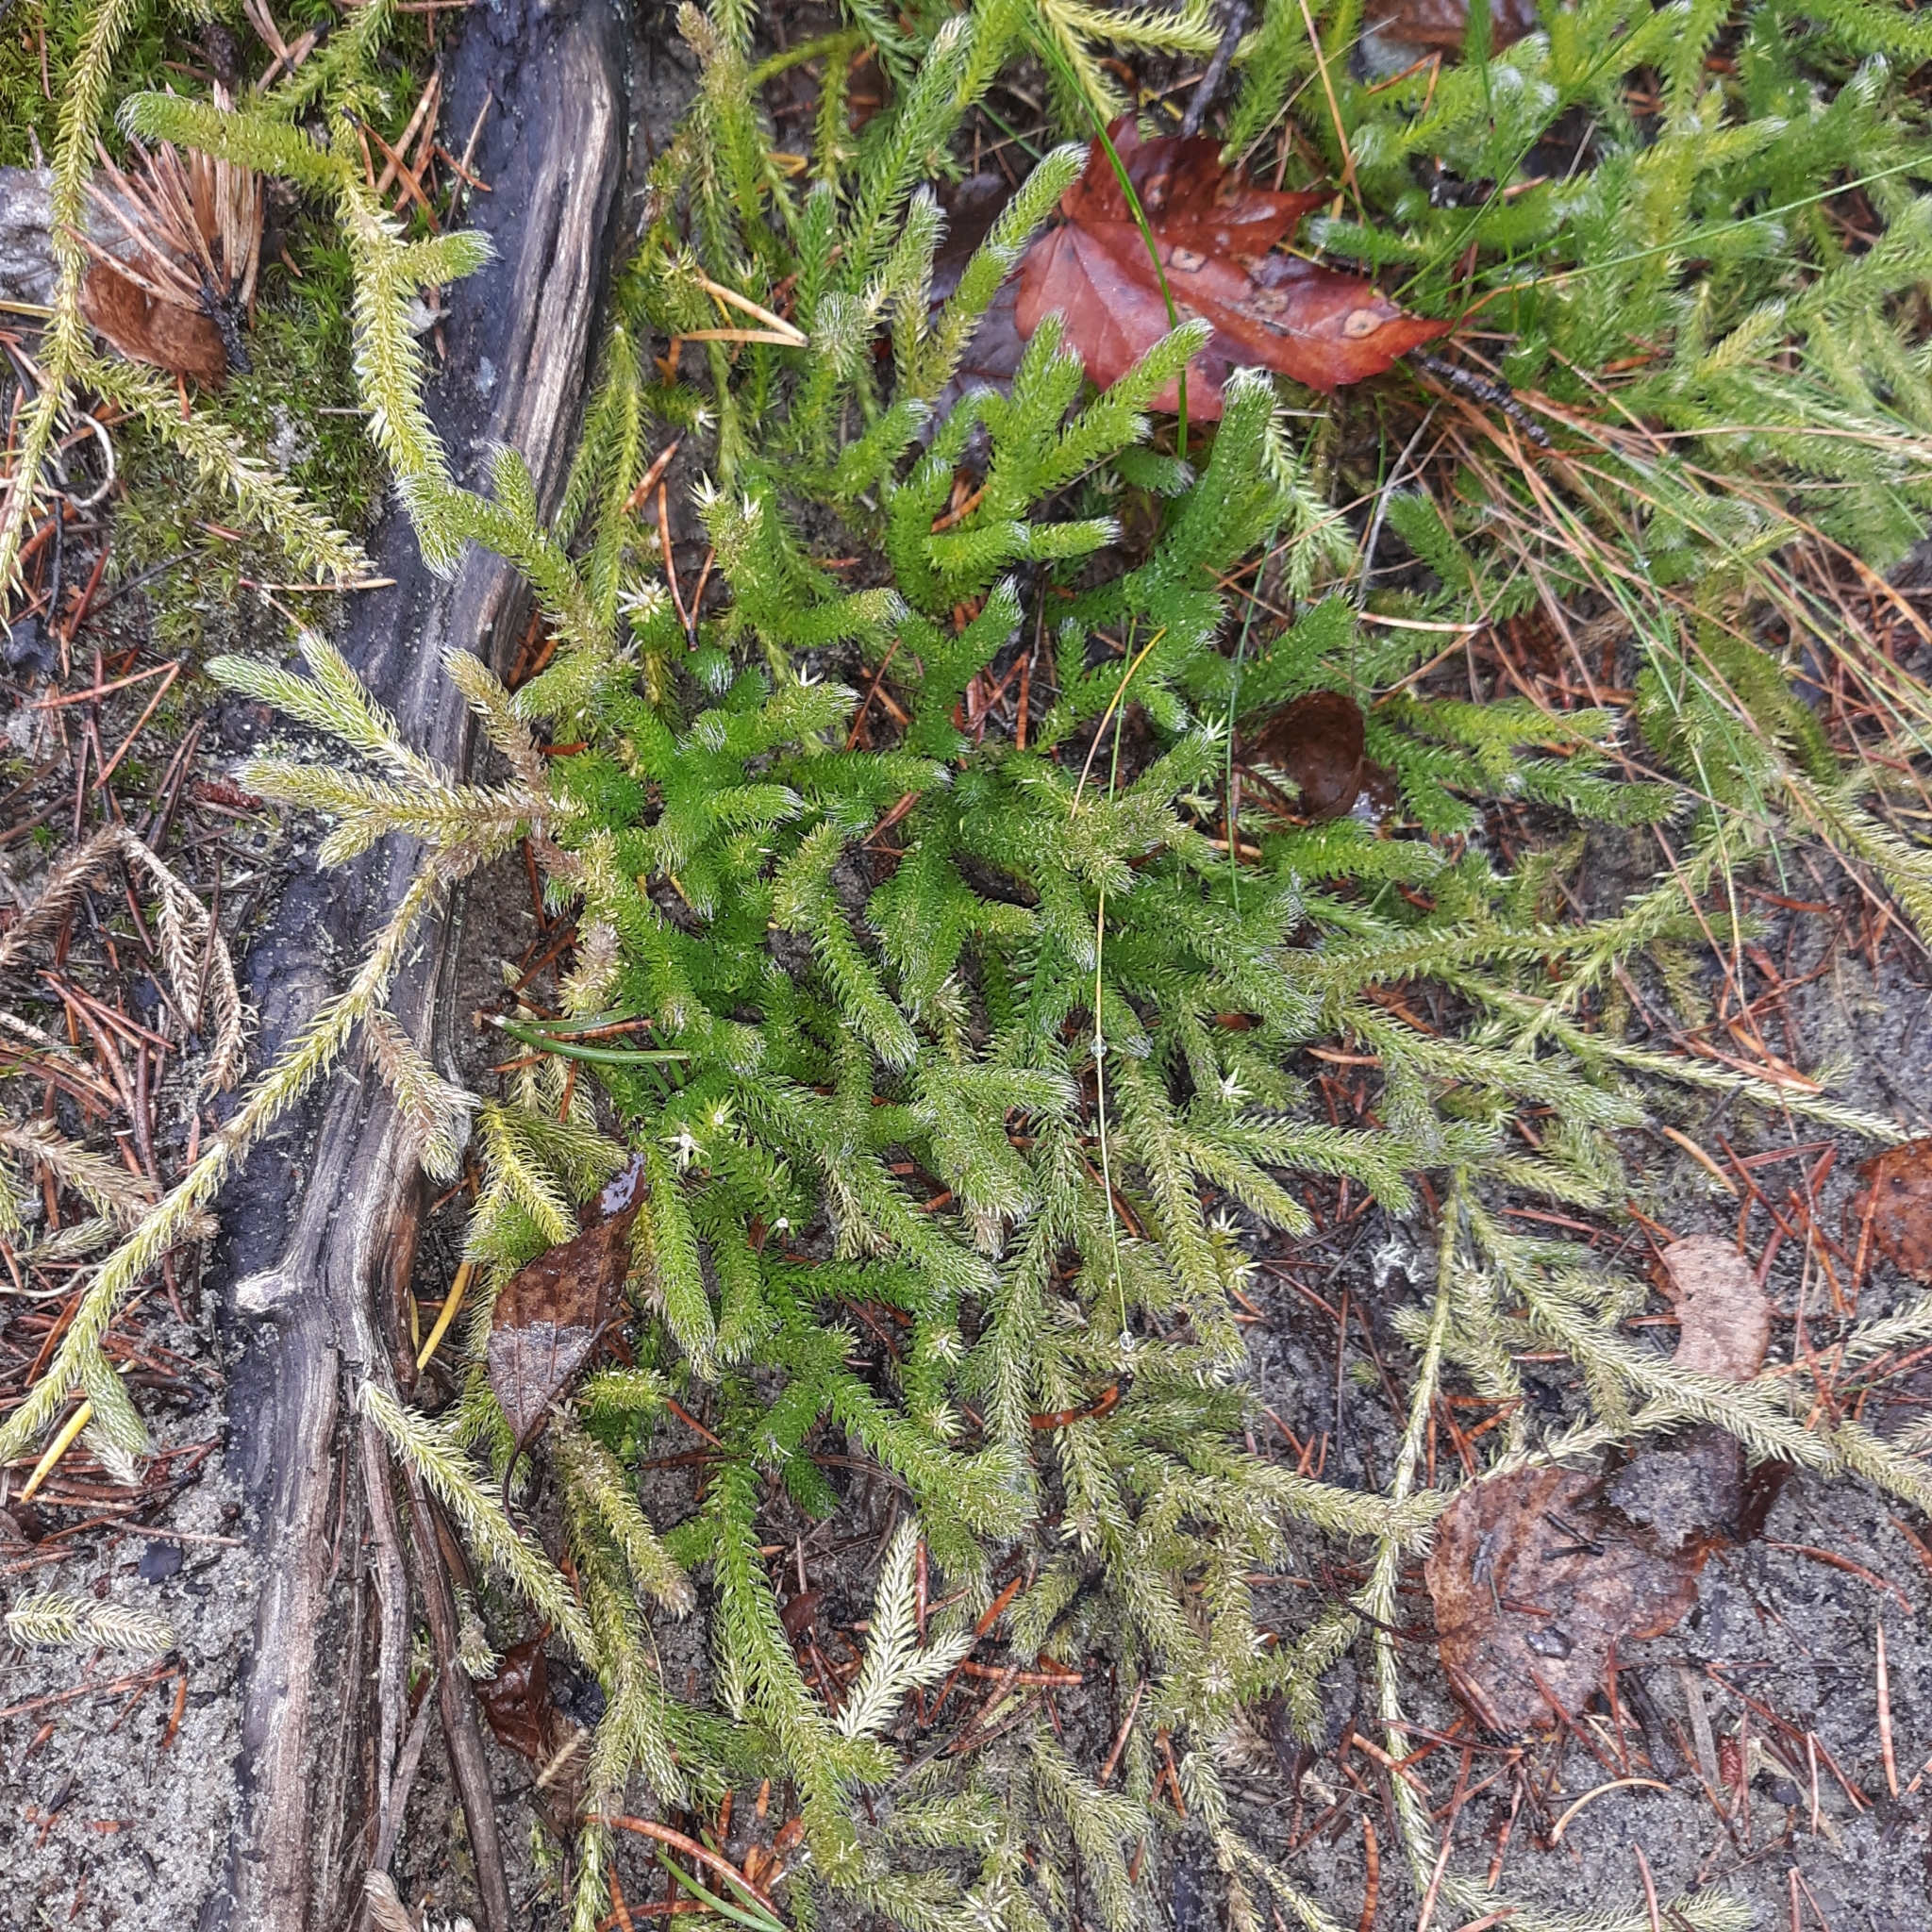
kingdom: Plantae
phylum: Tracheophyta
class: Lycopodiopsida
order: Lycopodiales
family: Lycopodiaceae
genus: Lycopodium
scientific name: Lycopodium clavatum
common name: Stag's-horn clubmoss
